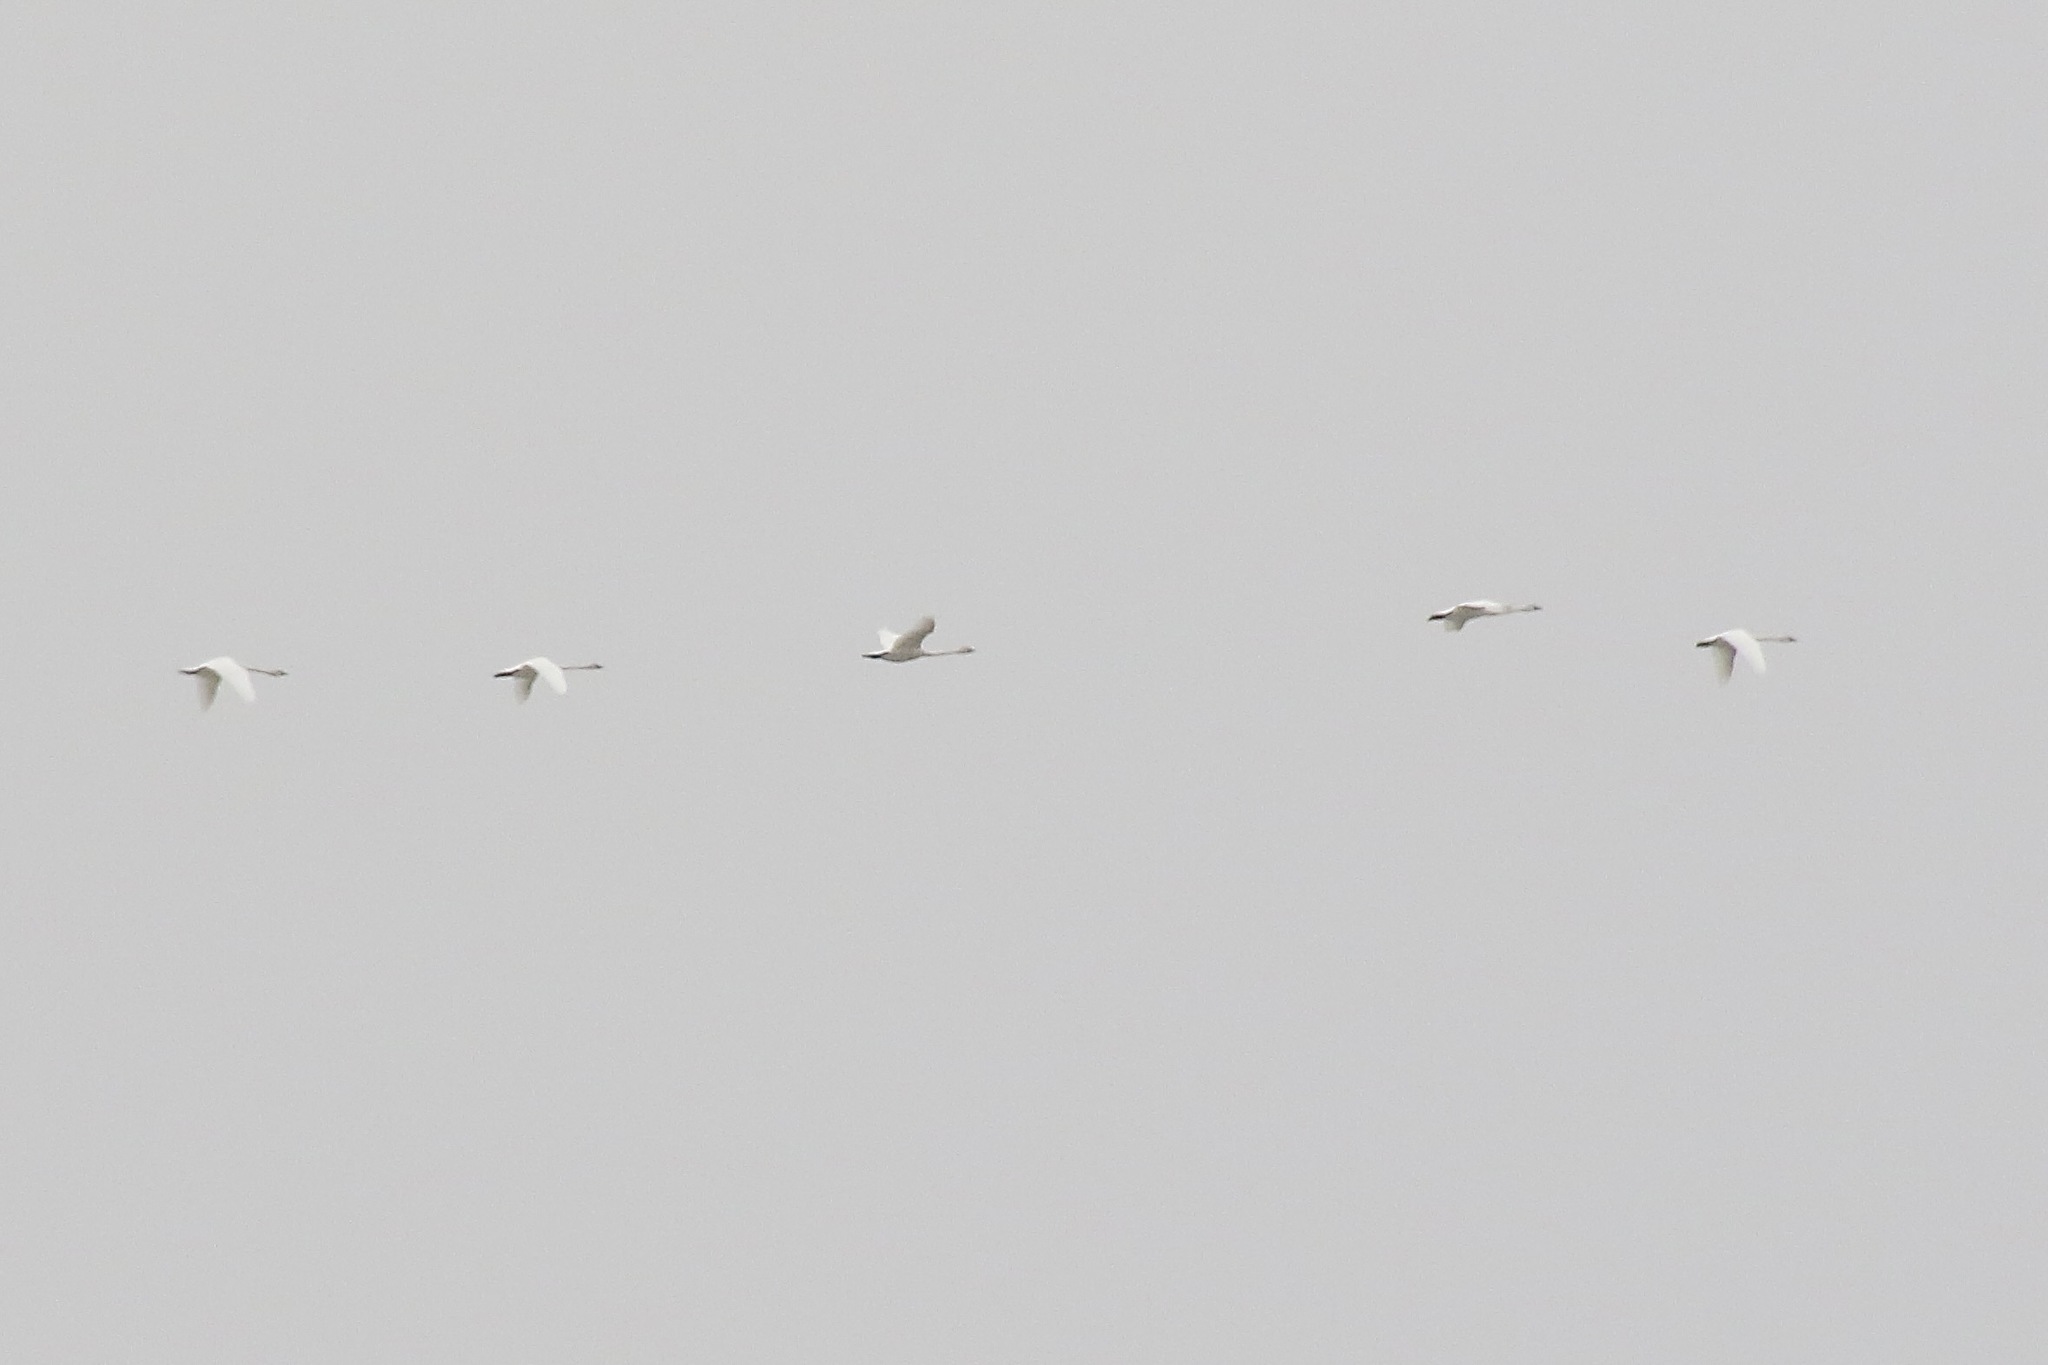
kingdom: Animalia
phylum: Chordata
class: Aves
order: Anseriformes
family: Anatidae
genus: Cygnus
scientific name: Cygnus columbianus
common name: Tundra swan
